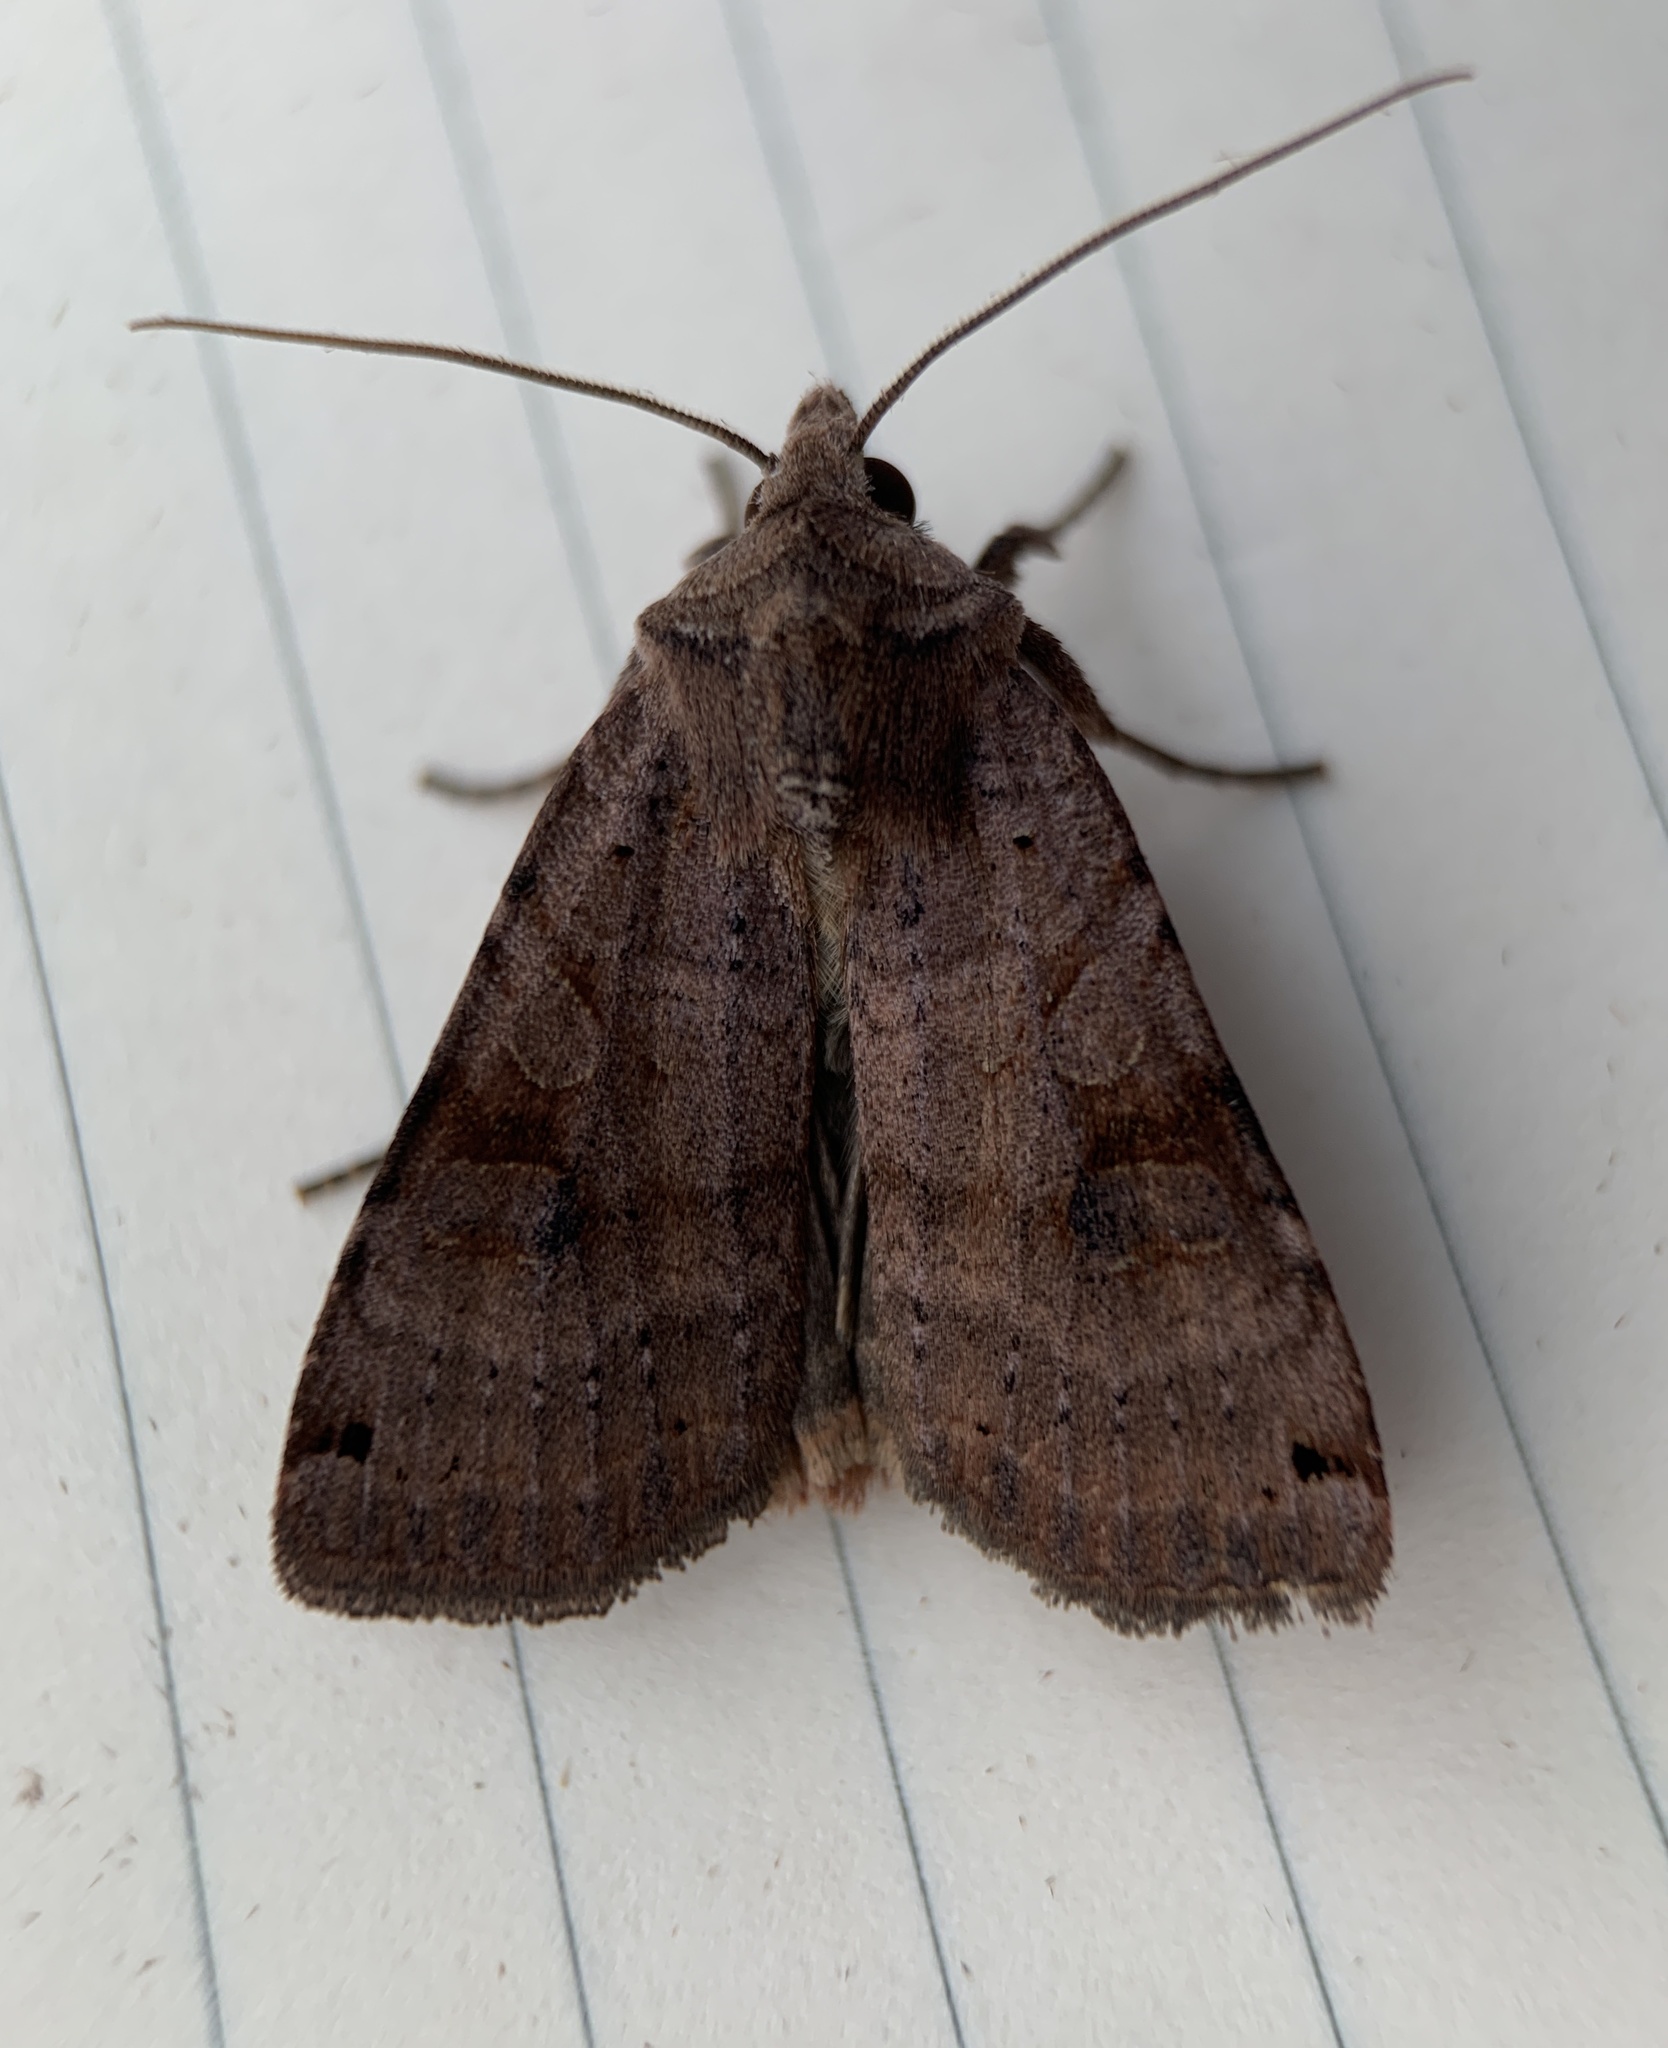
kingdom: Animalia
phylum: Arthropoda
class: Insecta
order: Lepidoptera
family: Noctuidae
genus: Xestia
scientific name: Xestia smithii
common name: Smith's dart
